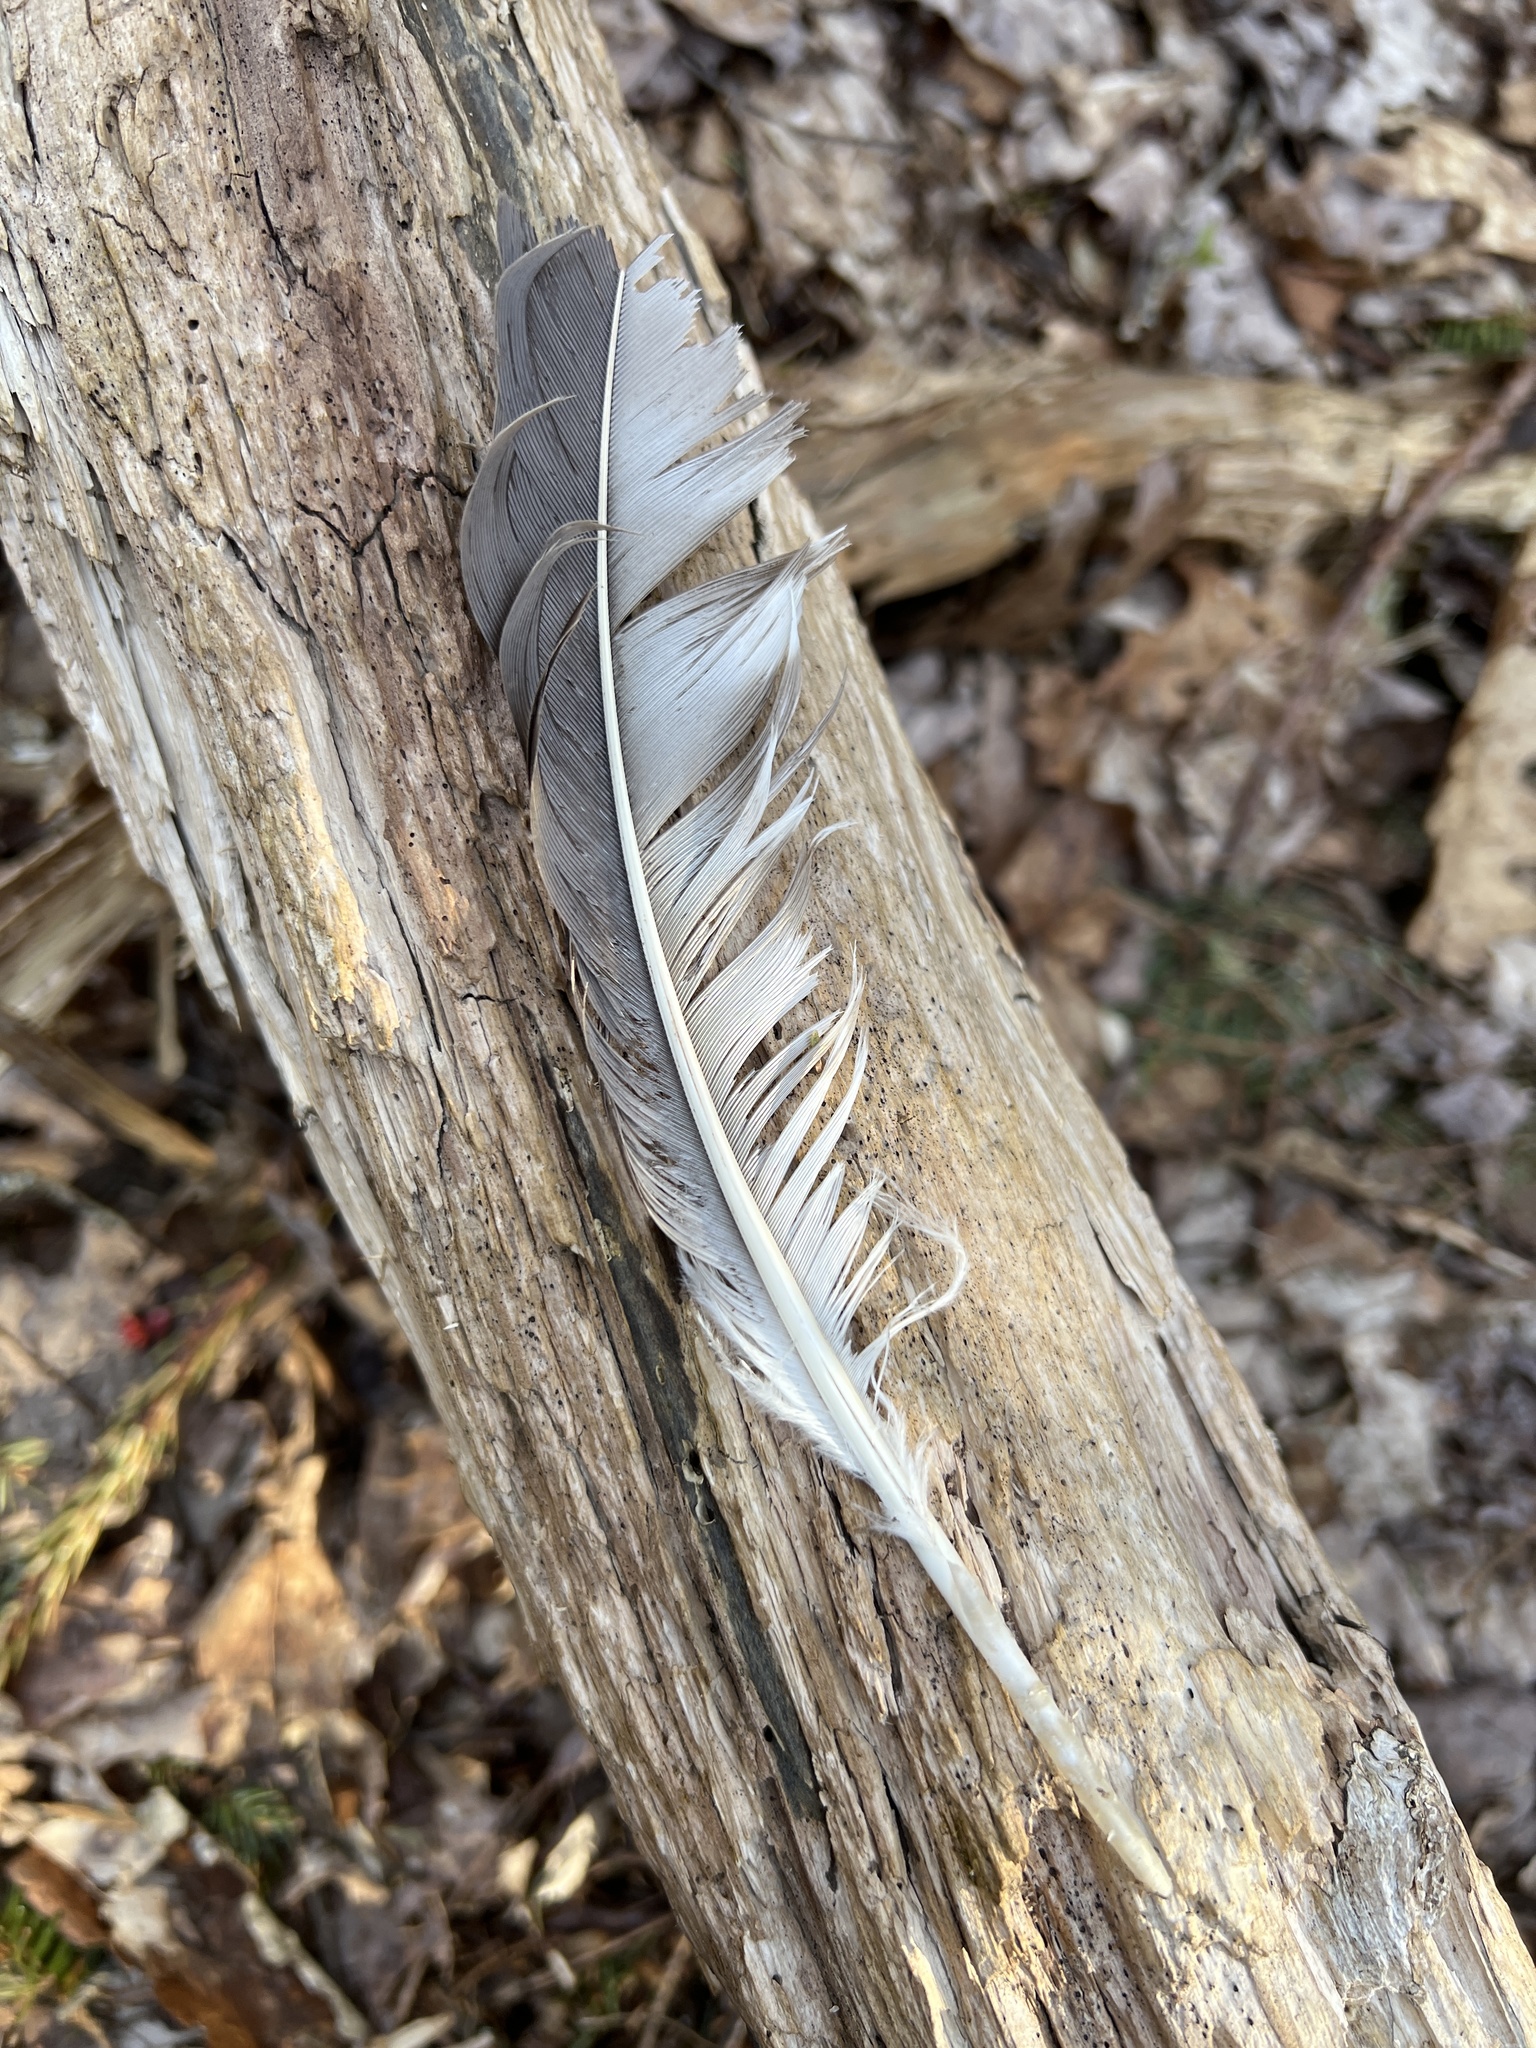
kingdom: Animalia
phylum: Chordata
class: Aves
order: Accipitriformes
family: Pandionidae
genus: Pandion
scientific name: Pandion haliaetus
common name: Osprey
